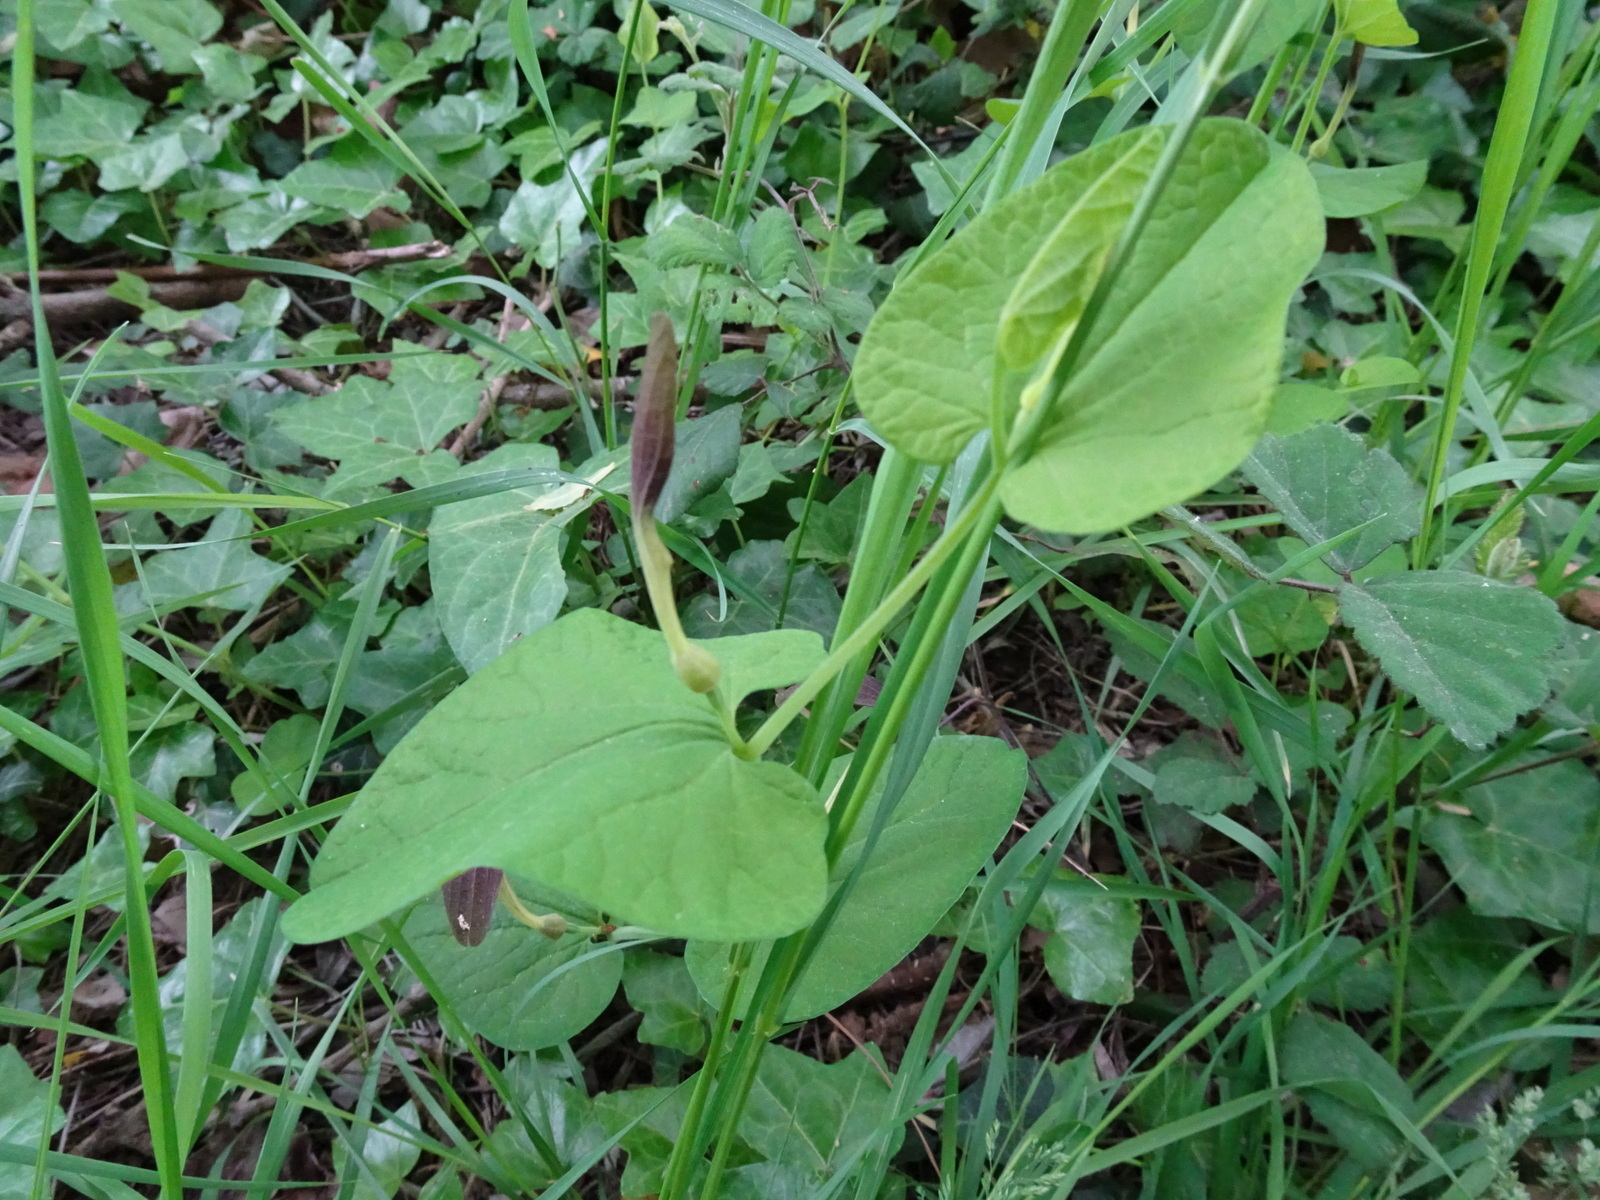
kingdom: Plantae
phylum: Tracheophyta
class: Magnoliopsida
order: Piperales
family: Aristolochiaceae
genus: Aristolochia
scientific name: Aristolochia rotunda
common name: Smearwort
